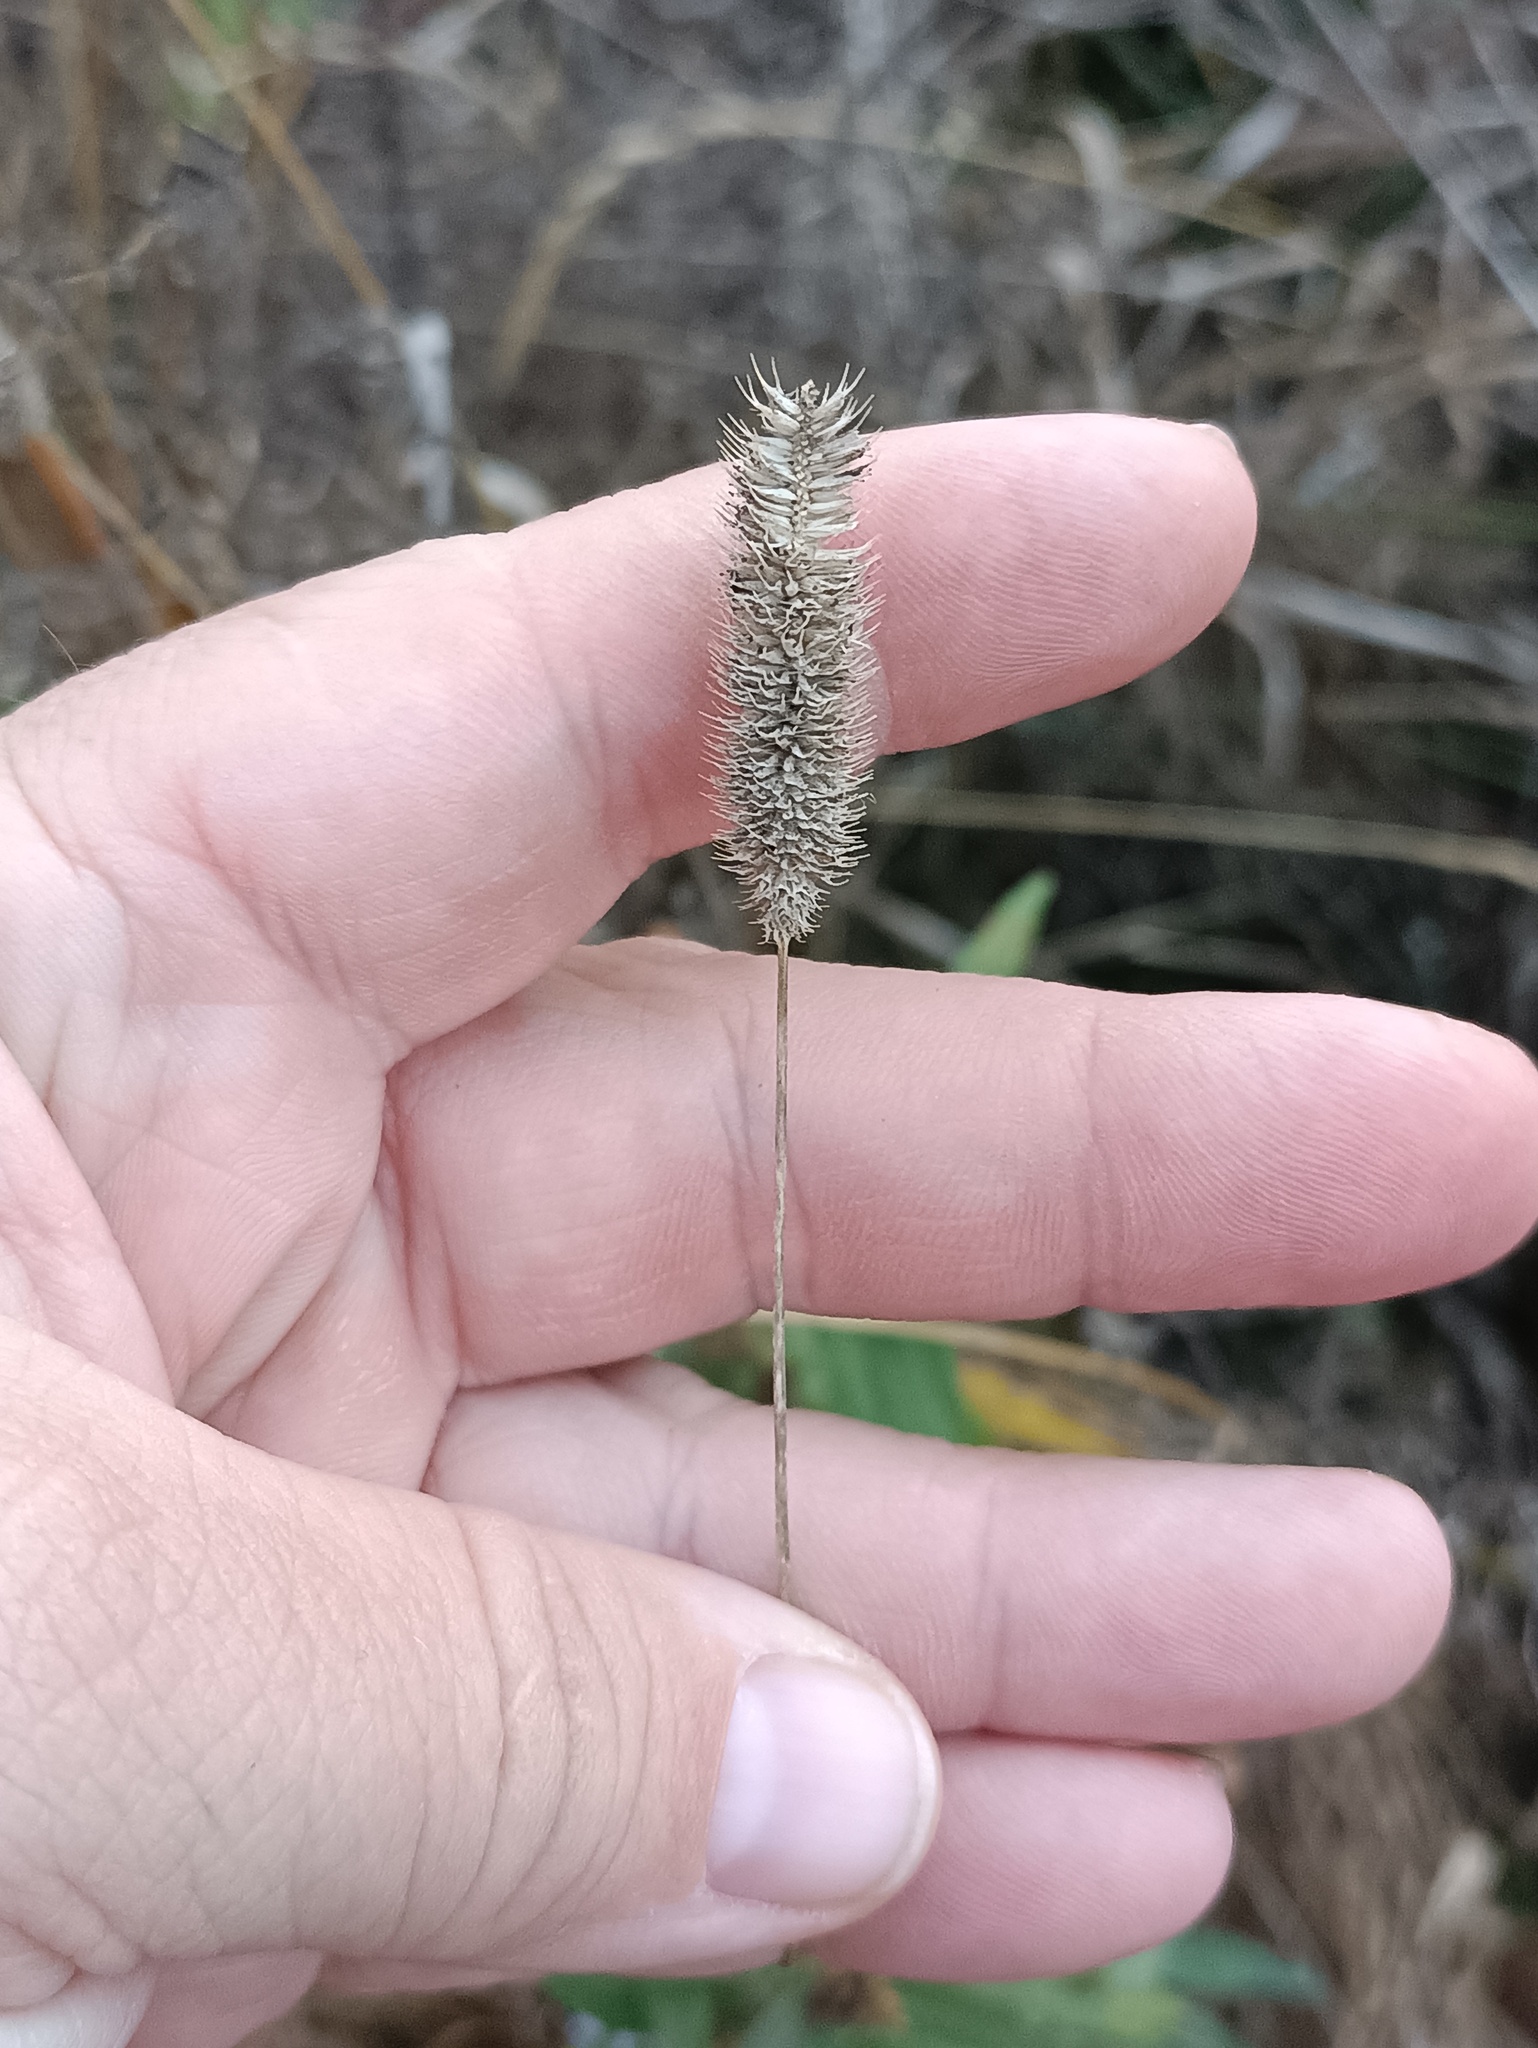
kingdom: Plantae
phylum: Tracheophyta
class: Liliopsida
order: Poales
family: Poaceae
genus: Phleum
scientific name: Phleum pratense
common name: Timothy grass
